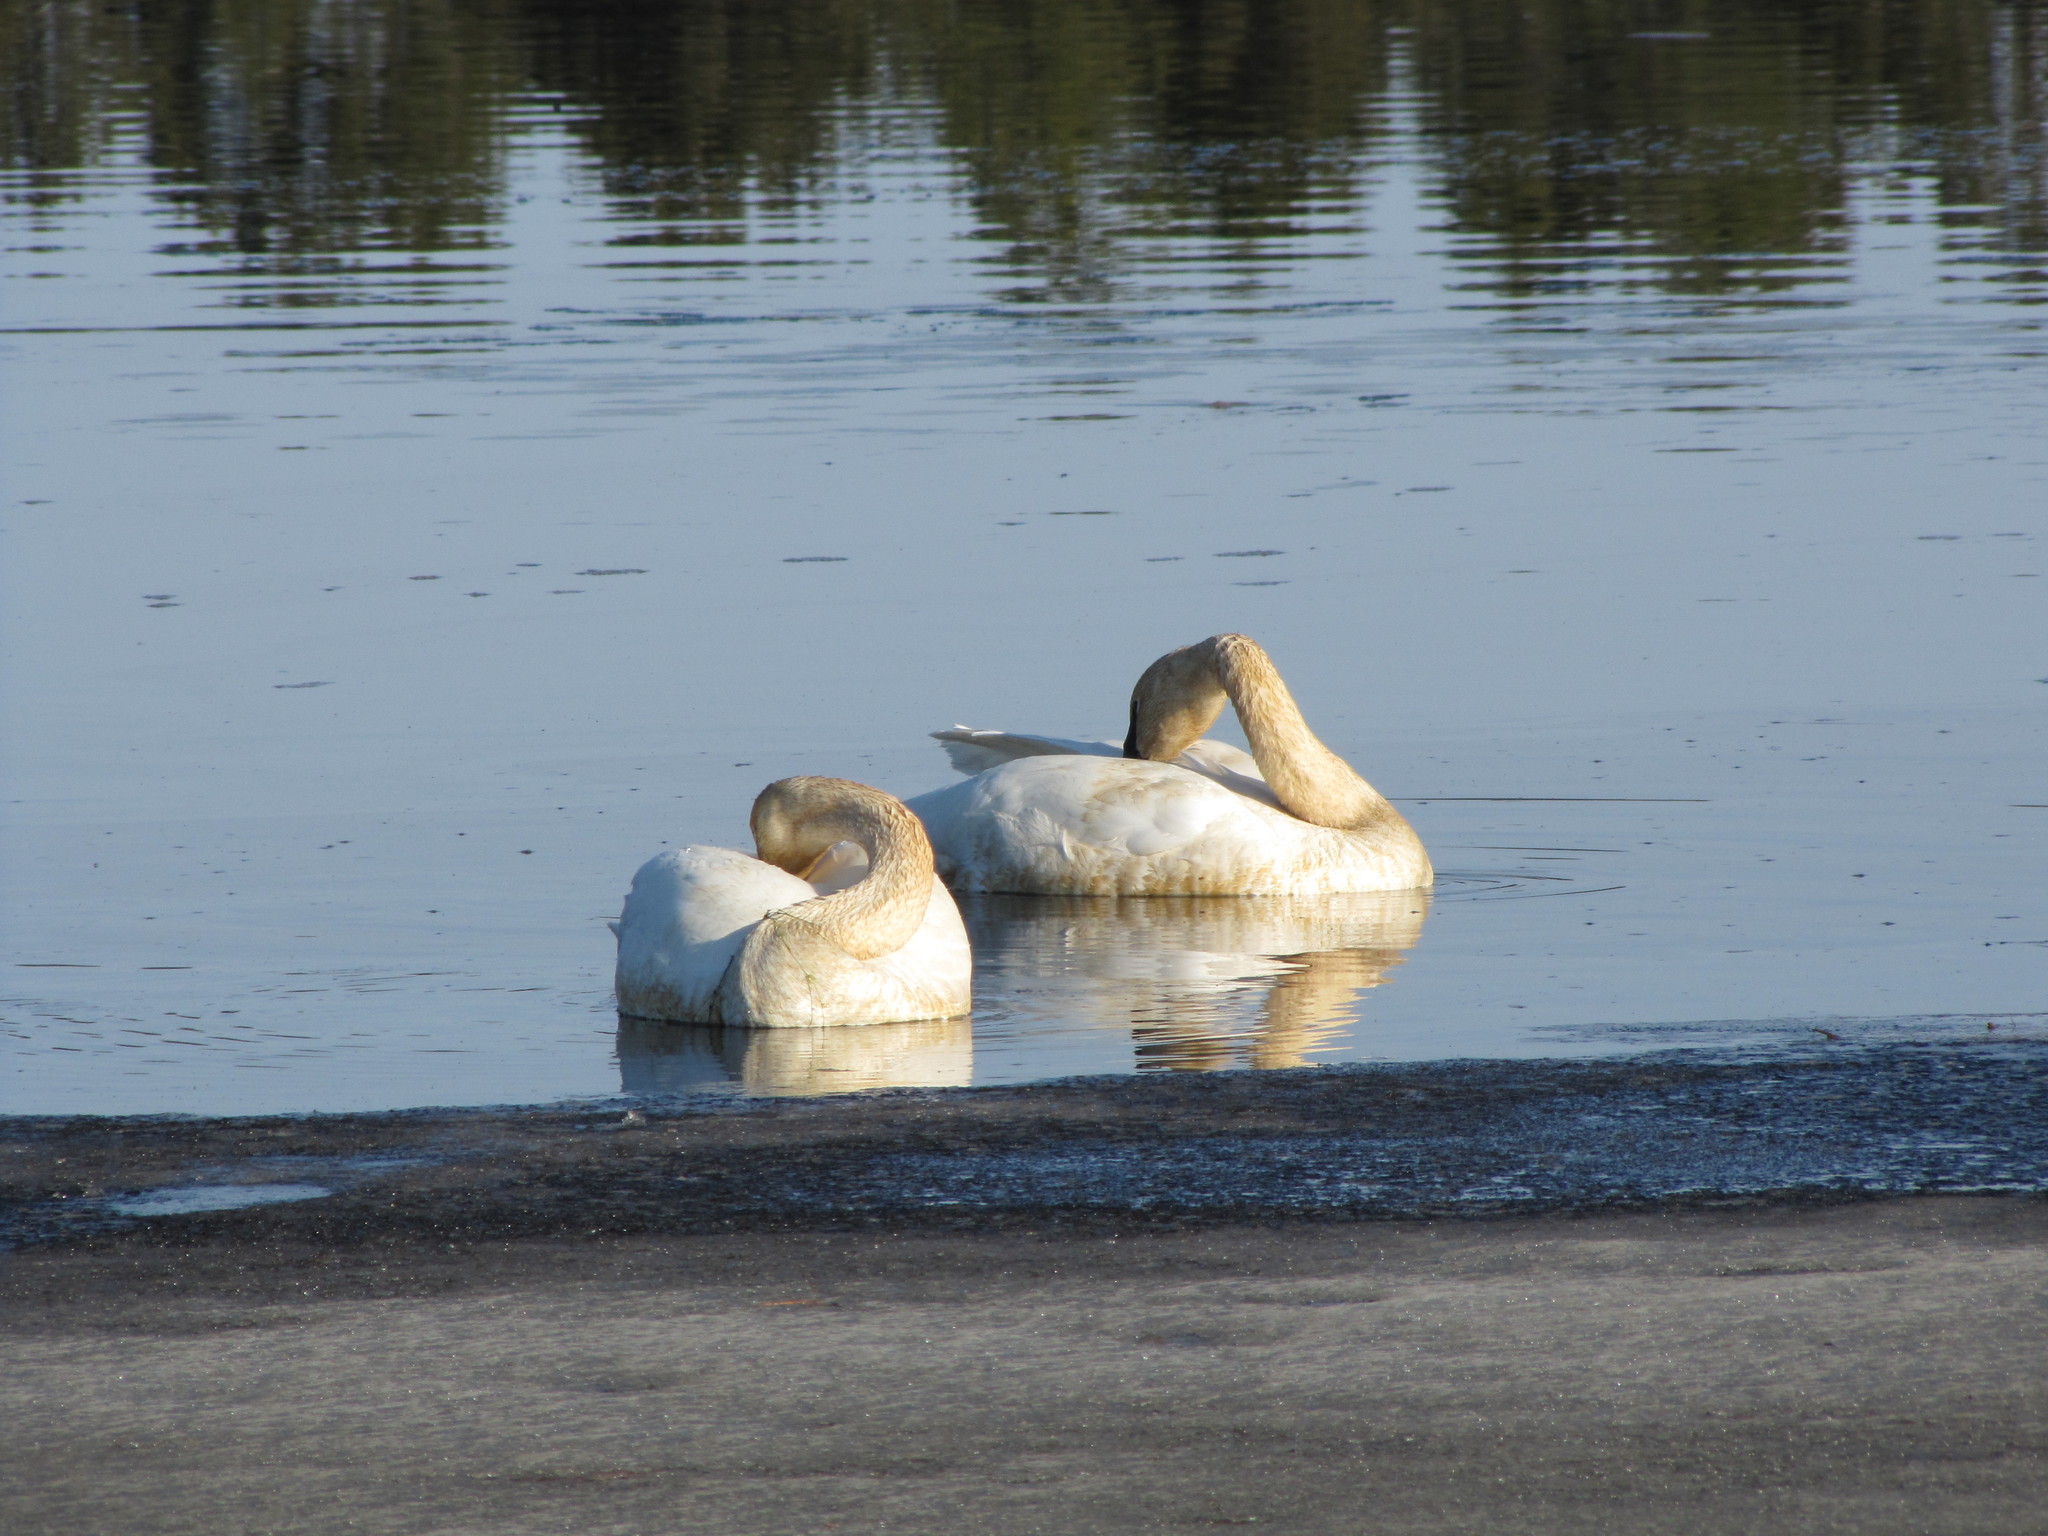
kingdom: Animalia
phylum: Chordata
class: Aves
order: Anseriformes
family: Anatidae
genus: Cygnus
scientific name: Cygnus buccinator
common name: Trumpeter swan
